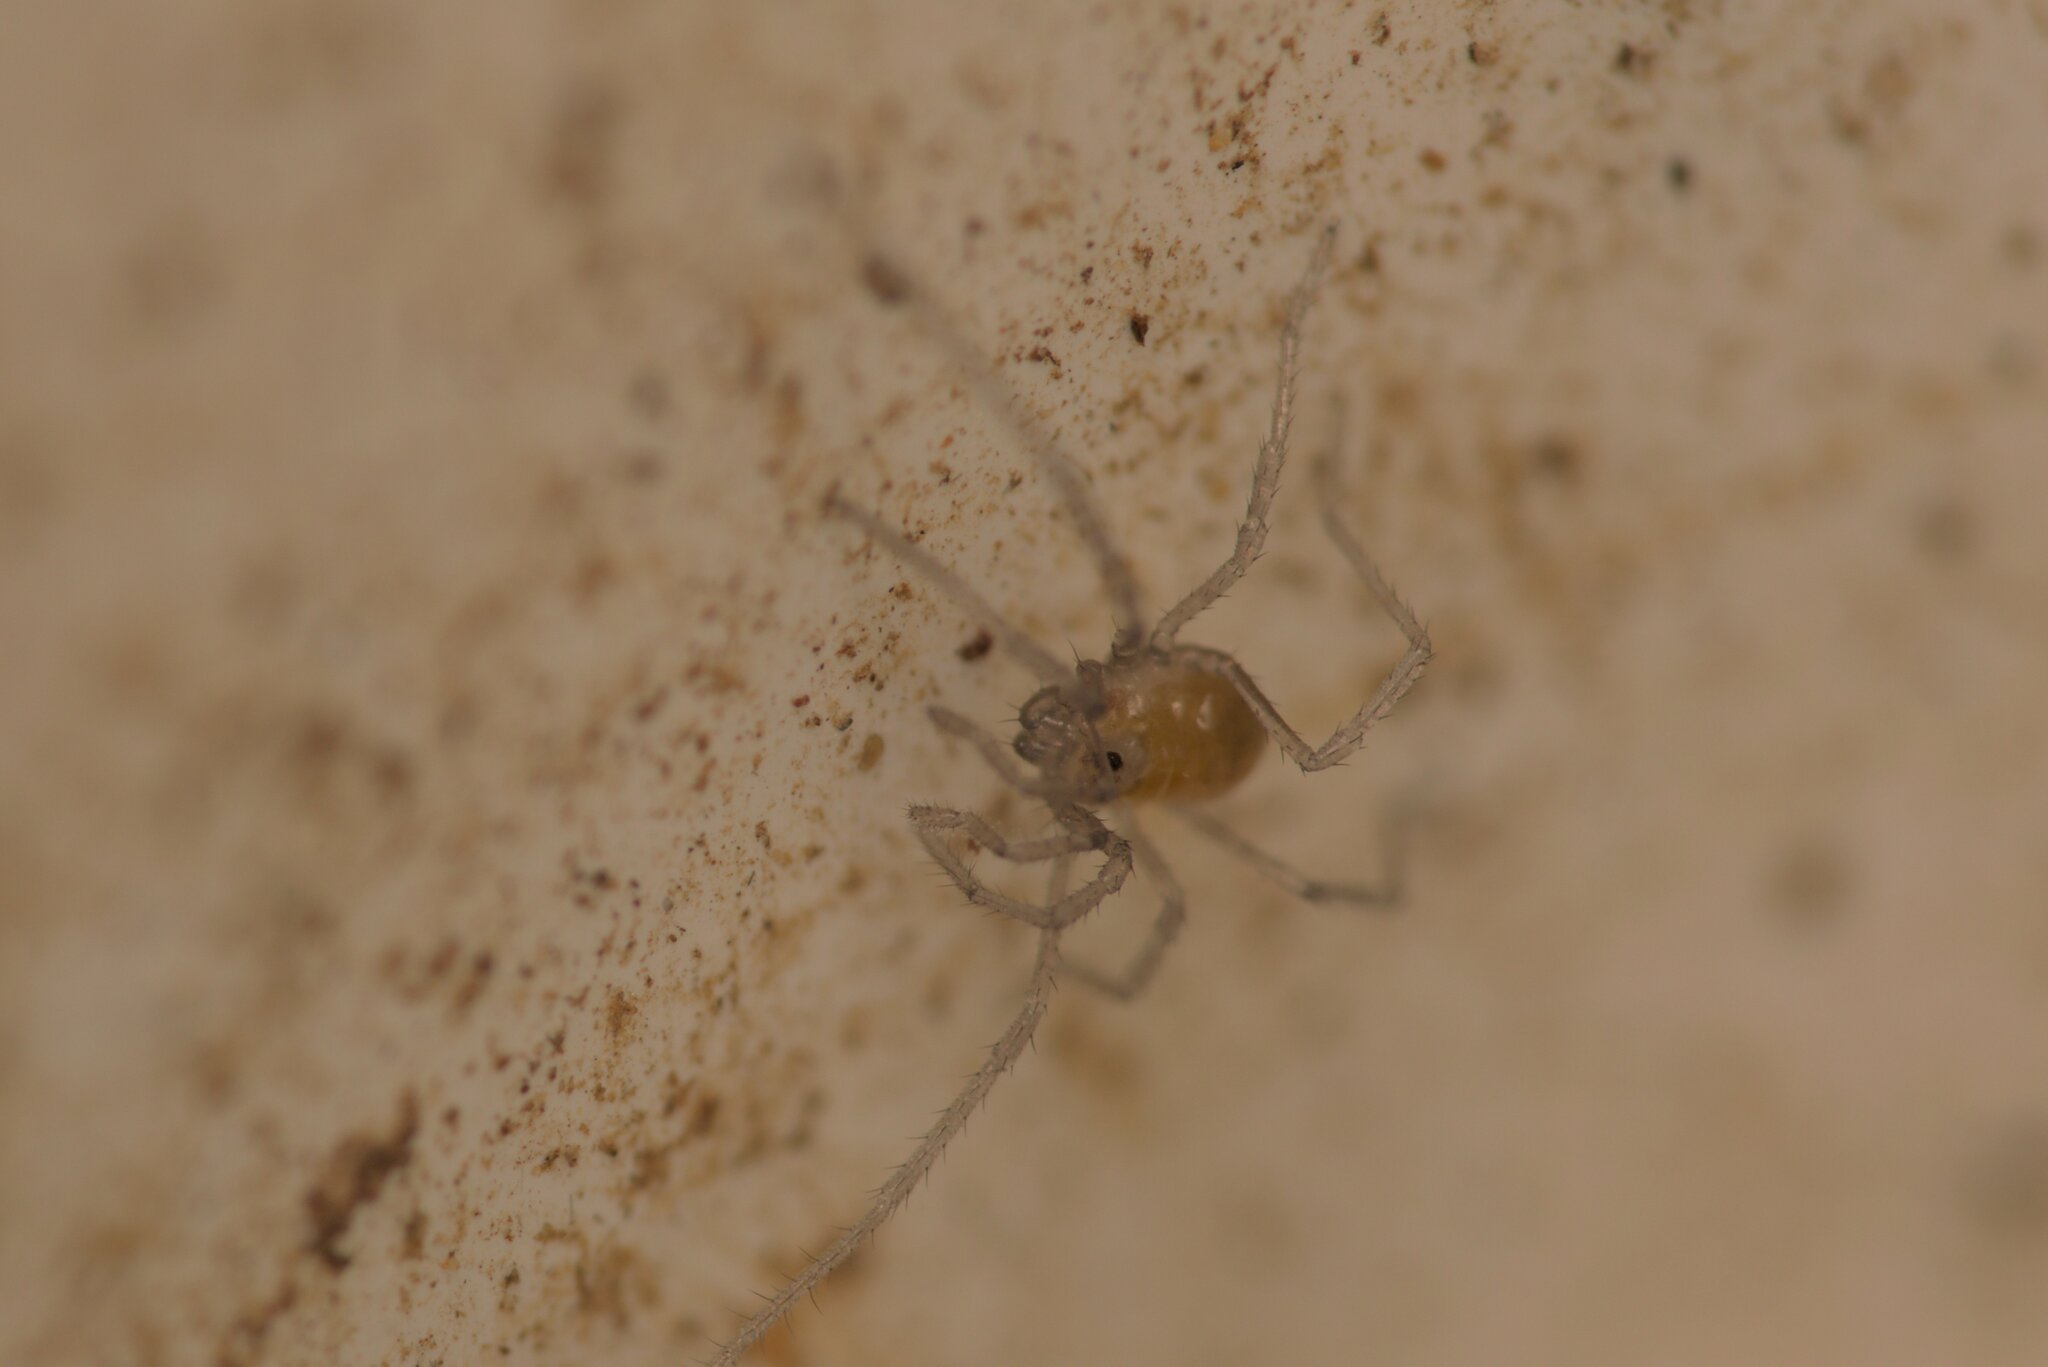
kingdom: Animalia
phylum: Arthropoda
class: Arachnida
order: Opiliones
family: Nemastomatidae
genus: Mitostoma
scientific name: Mitostoma chrysomelas
